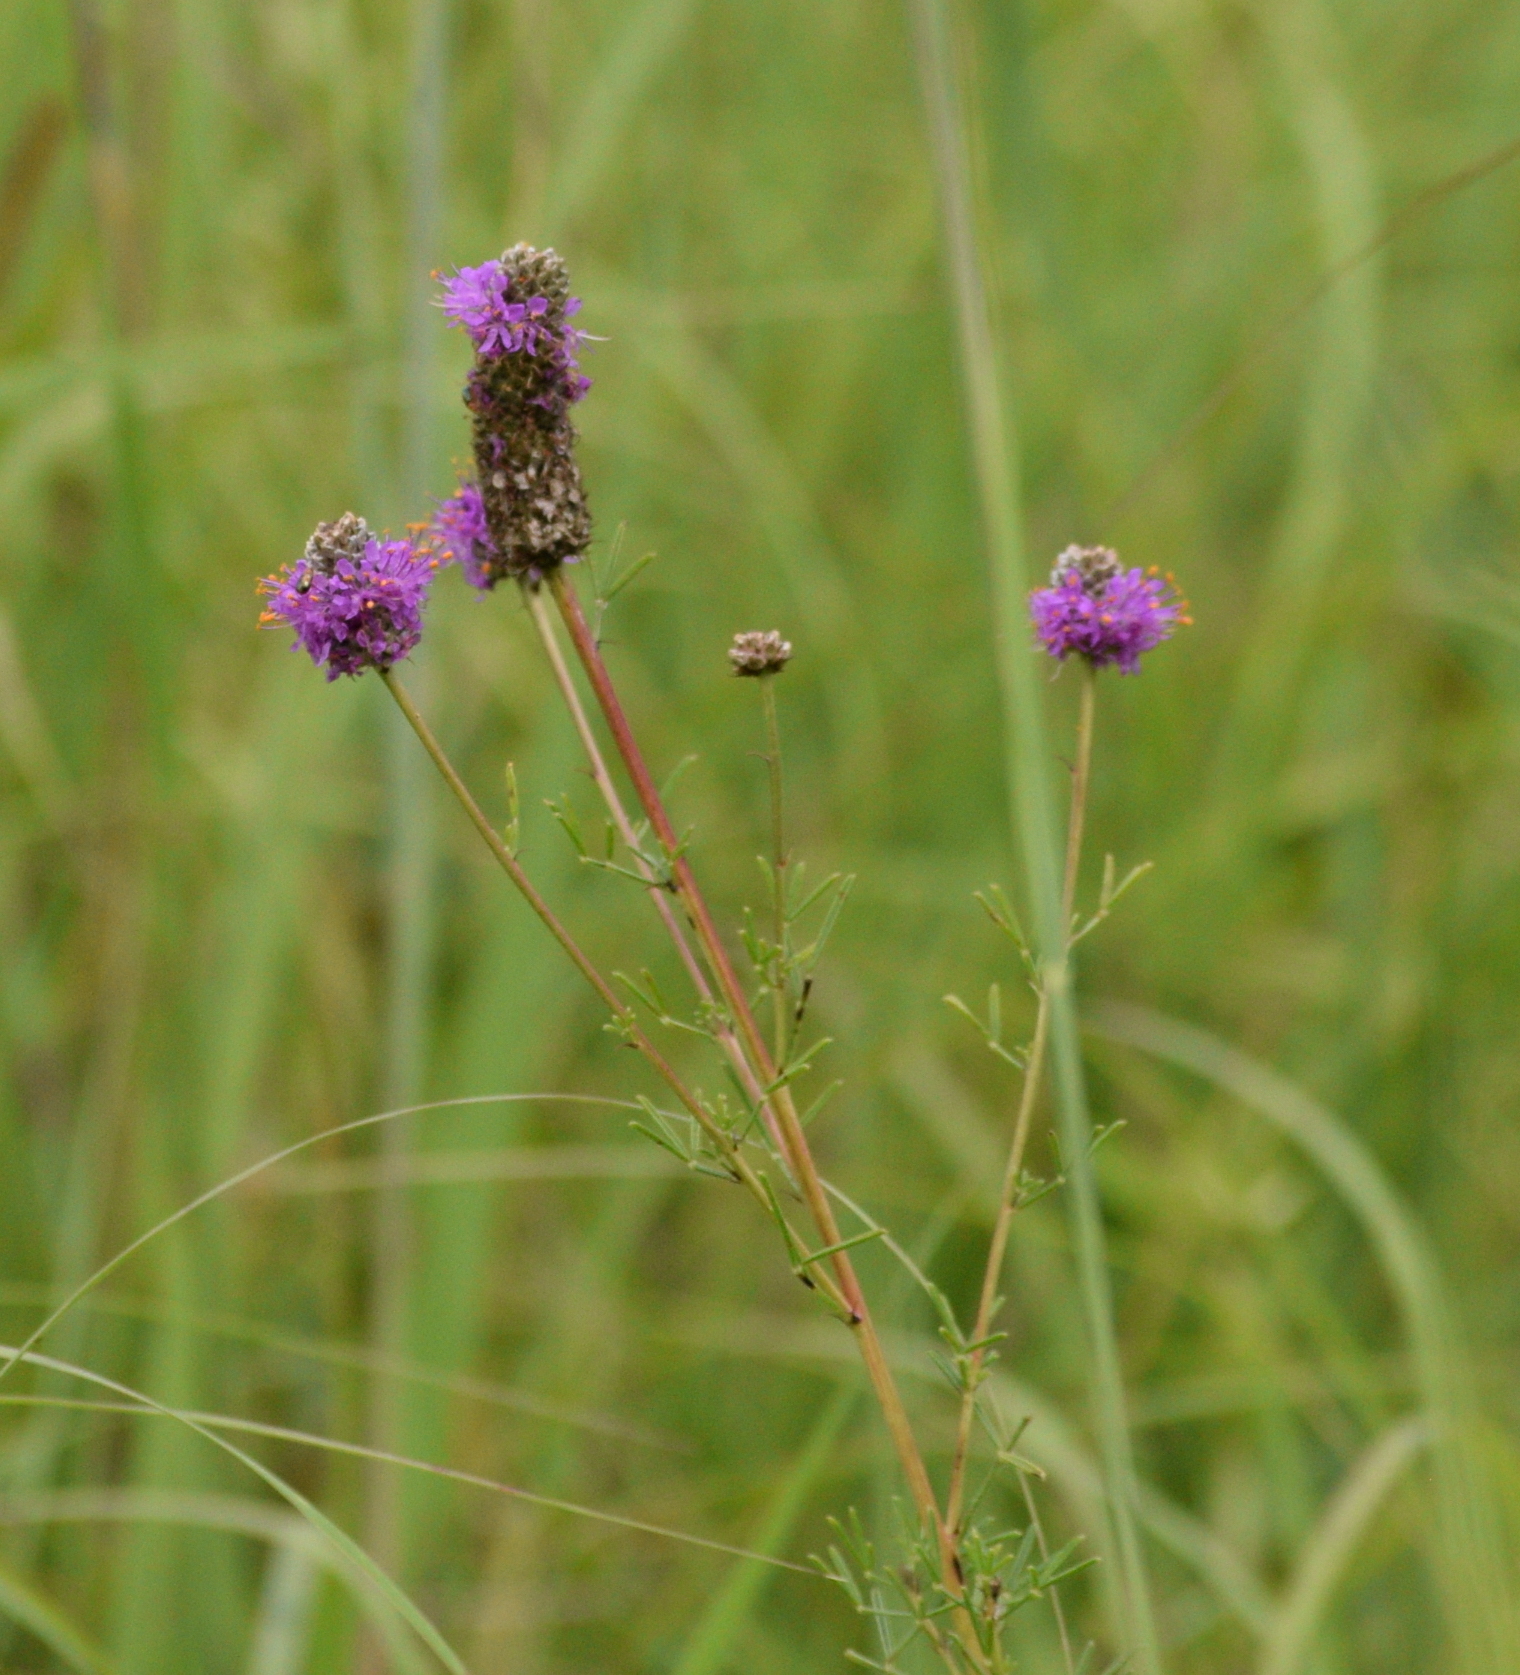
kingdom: Plantae
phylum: Tracheophyta
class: Magnoliopsida
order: Fabales
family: Fabaceae
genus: Dalea
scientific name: Dalea purpurea
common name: Purple prairie-clover
